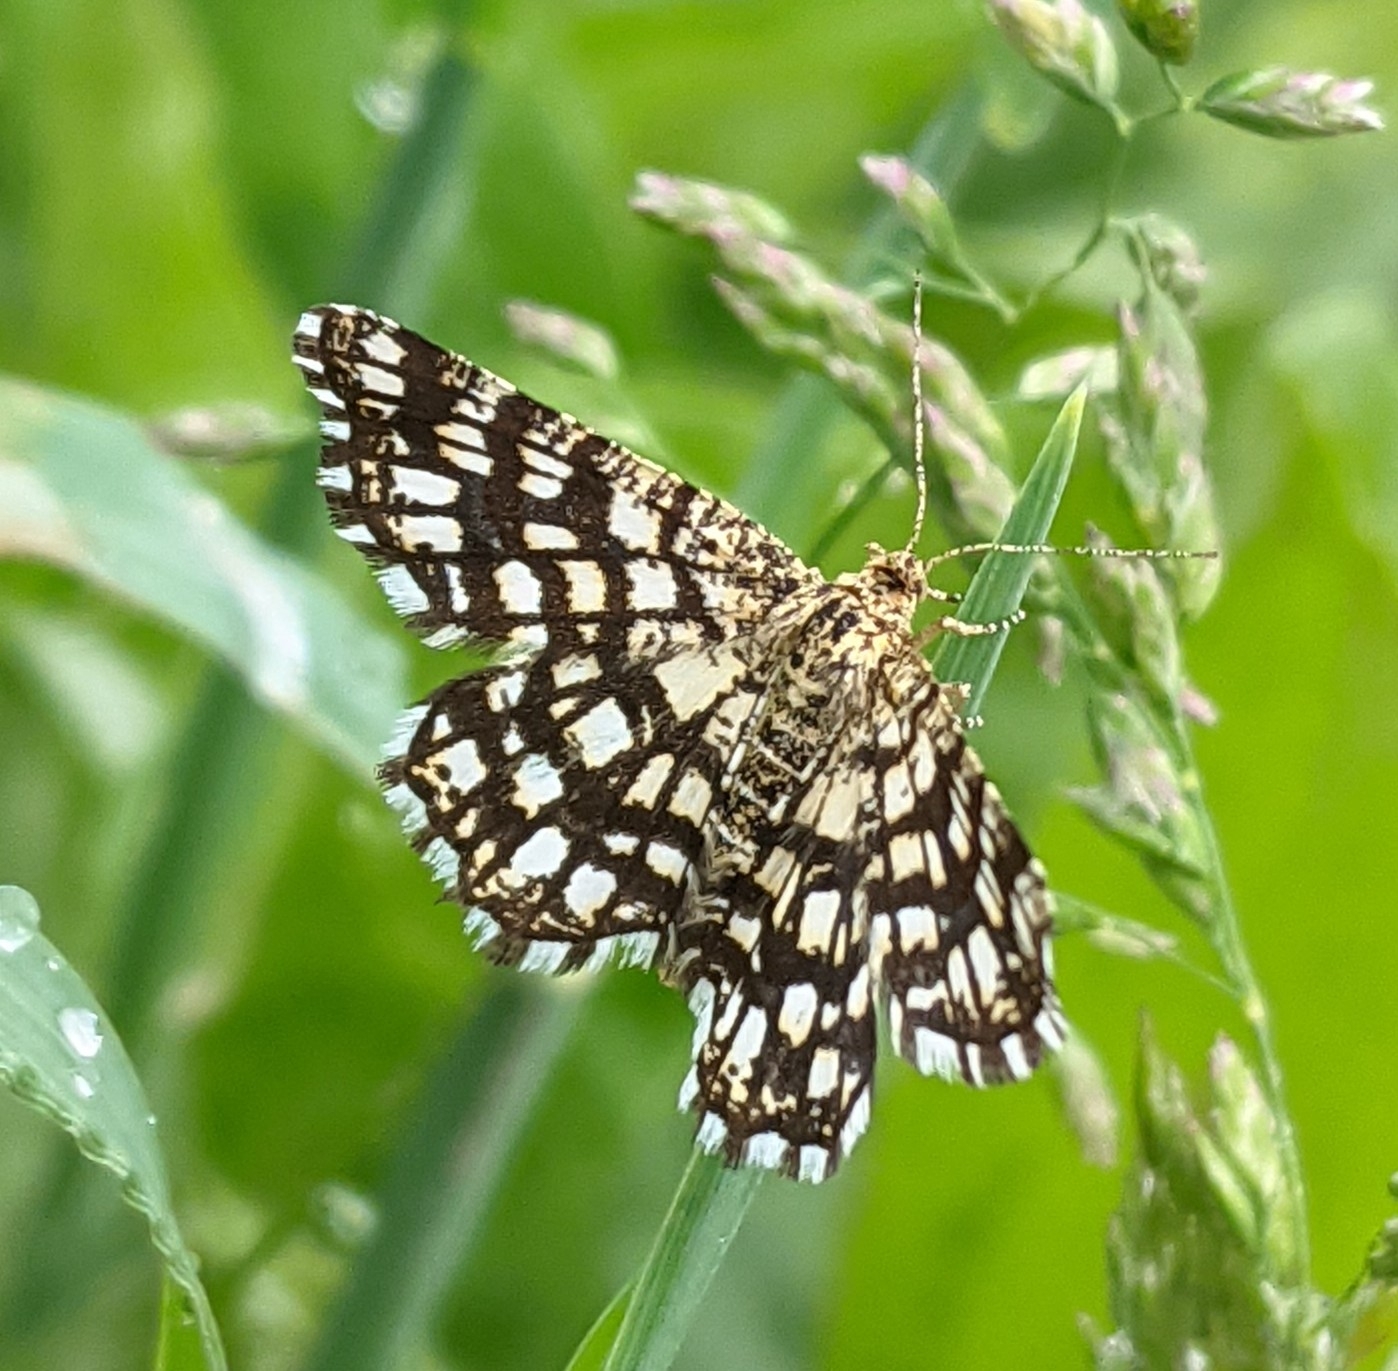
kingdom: Animalia
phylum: Arthropoda
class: Insecta
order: Lepidoptera
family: Geometridae
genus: Chiasmia
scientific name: Chiasmia clathrata
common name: Latticed heath
